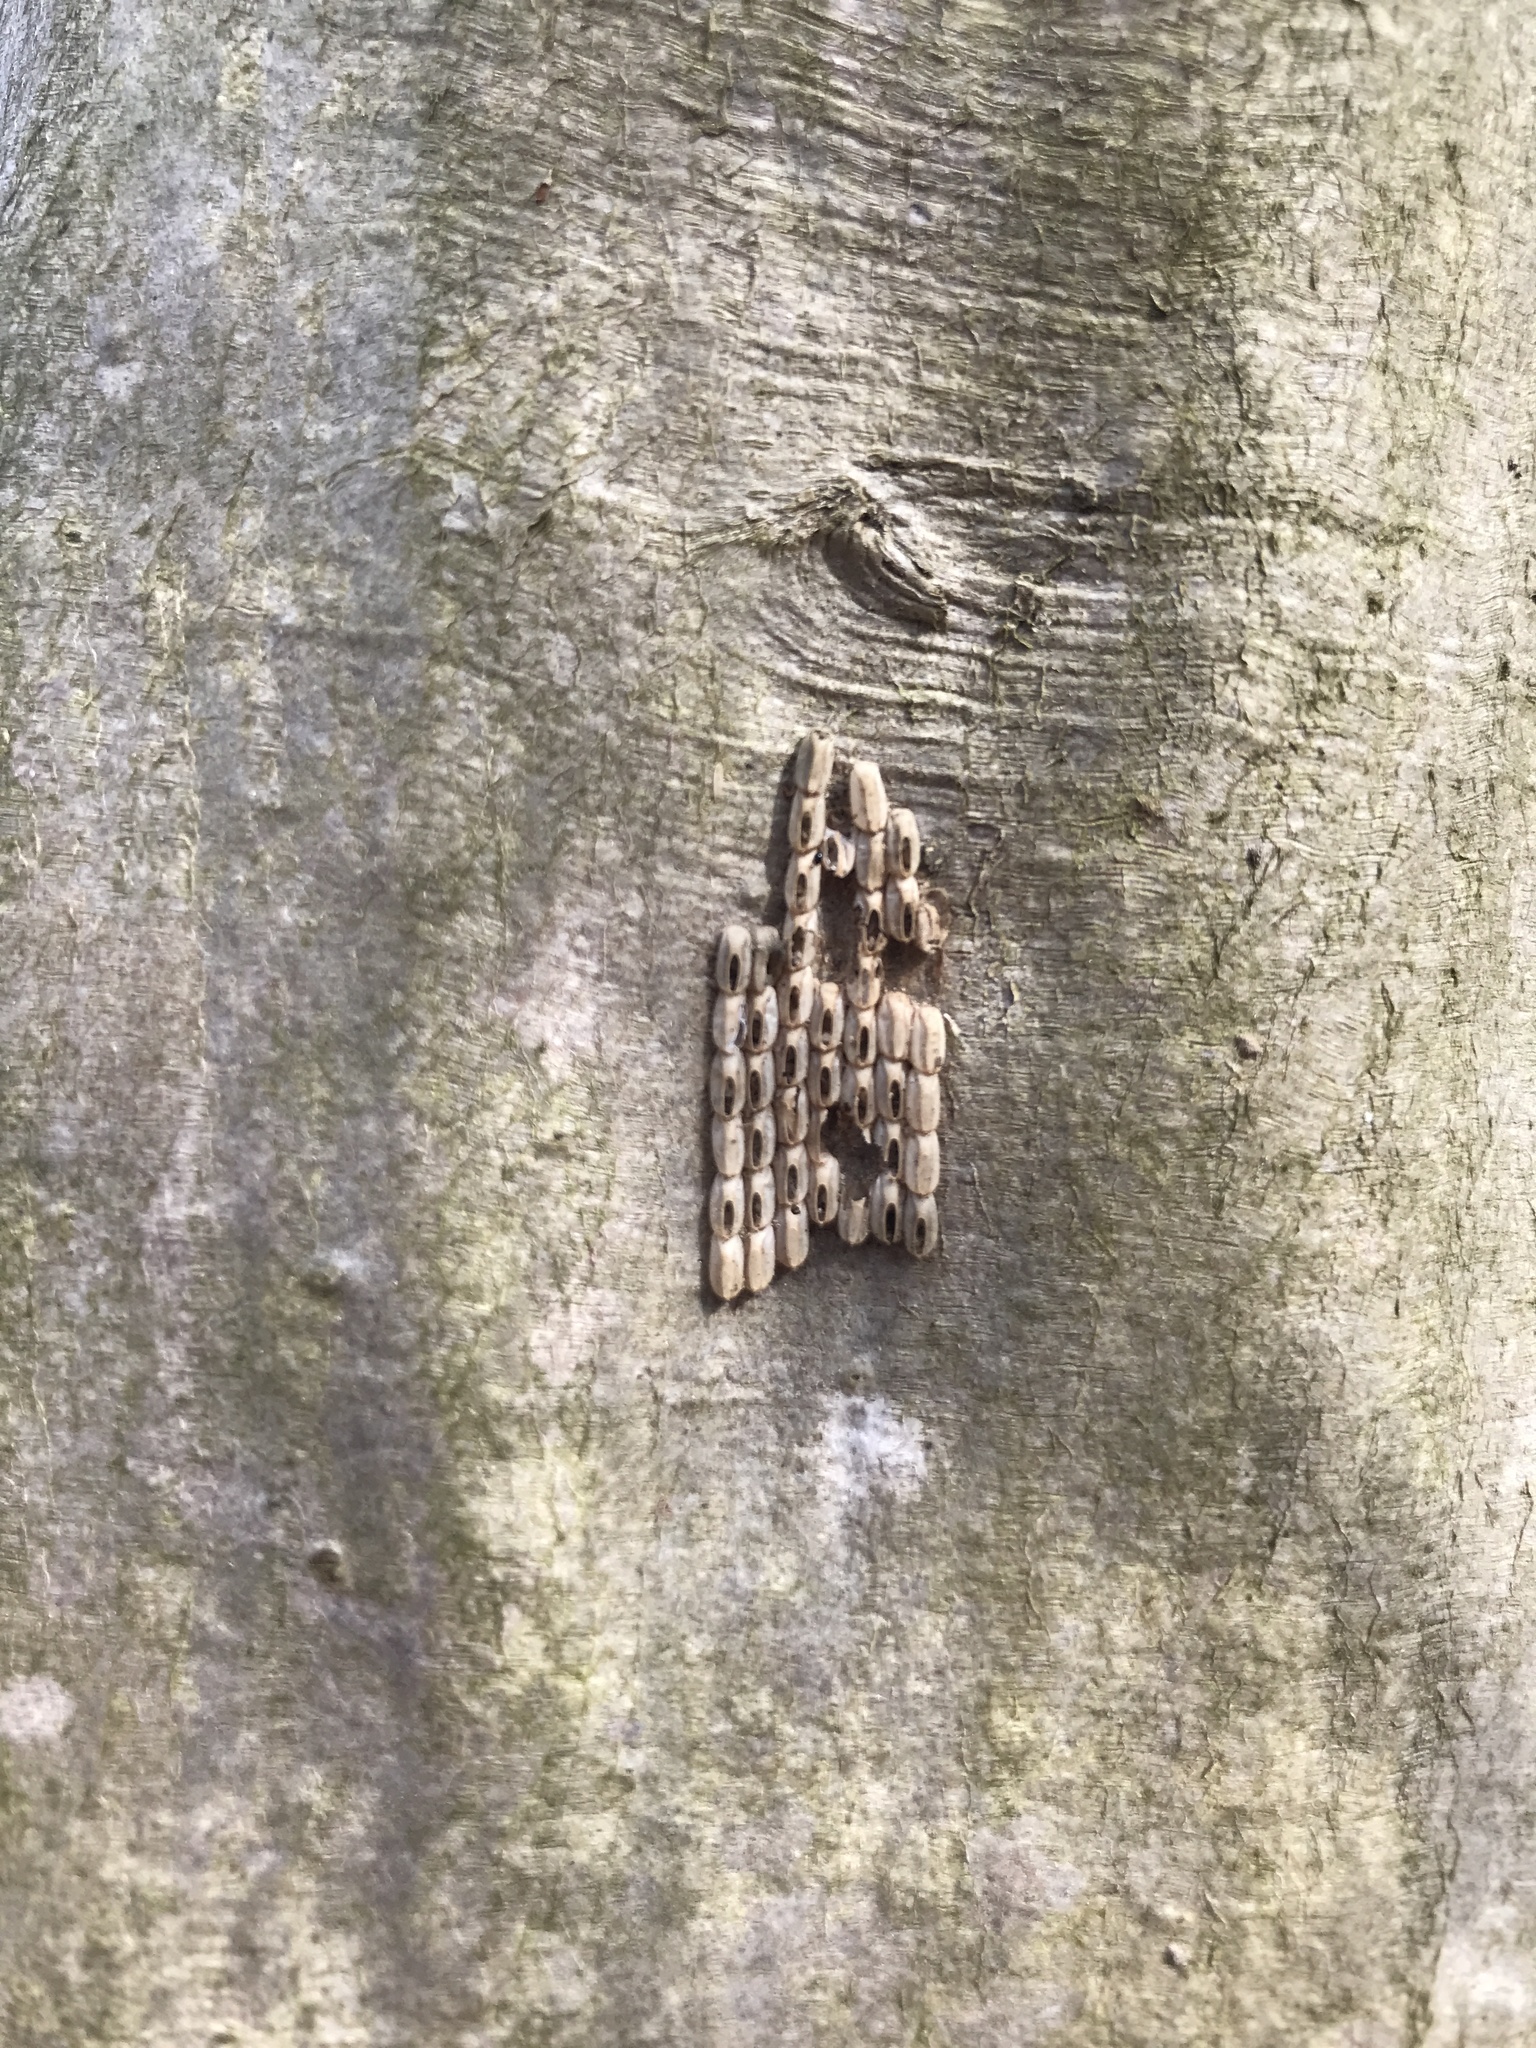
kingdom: Animalia
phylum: Arthropoda
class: Insecta
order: Hemiptera
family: Fulgoridae
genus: Lycorma
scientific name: Lycorma delicatula
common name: Spotted lanternfly
